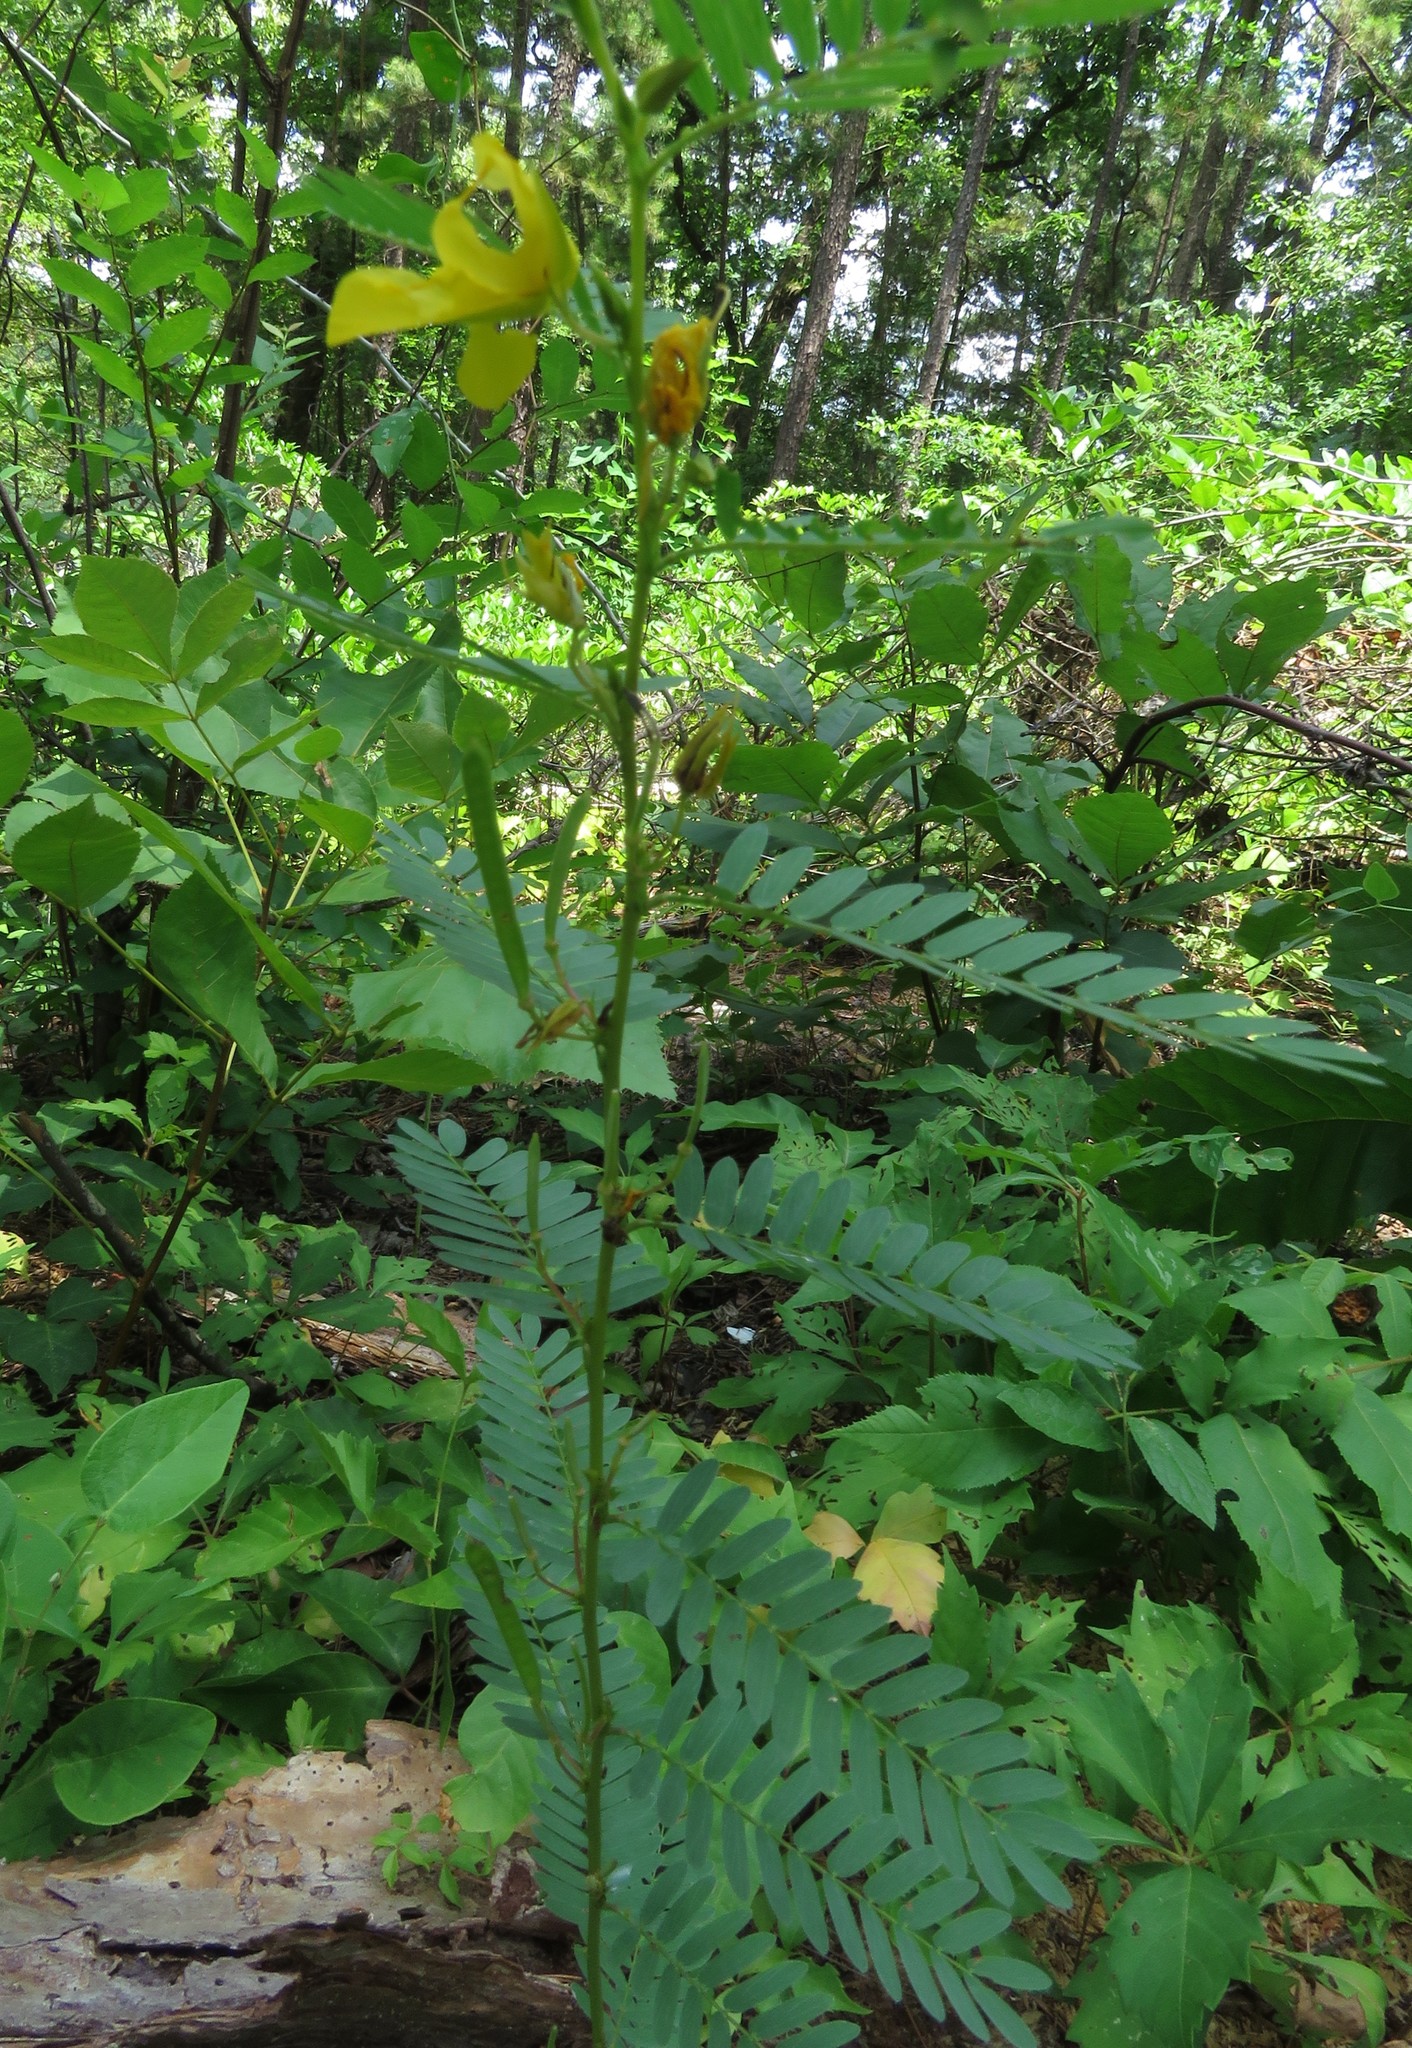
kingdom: Plantae
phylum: Tracheophyta
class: Magnoliopsida
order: Fabales
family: Fabaceae
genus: Chamaecrista
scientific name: Chamaecrista fasciculata
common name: Golden cassia
